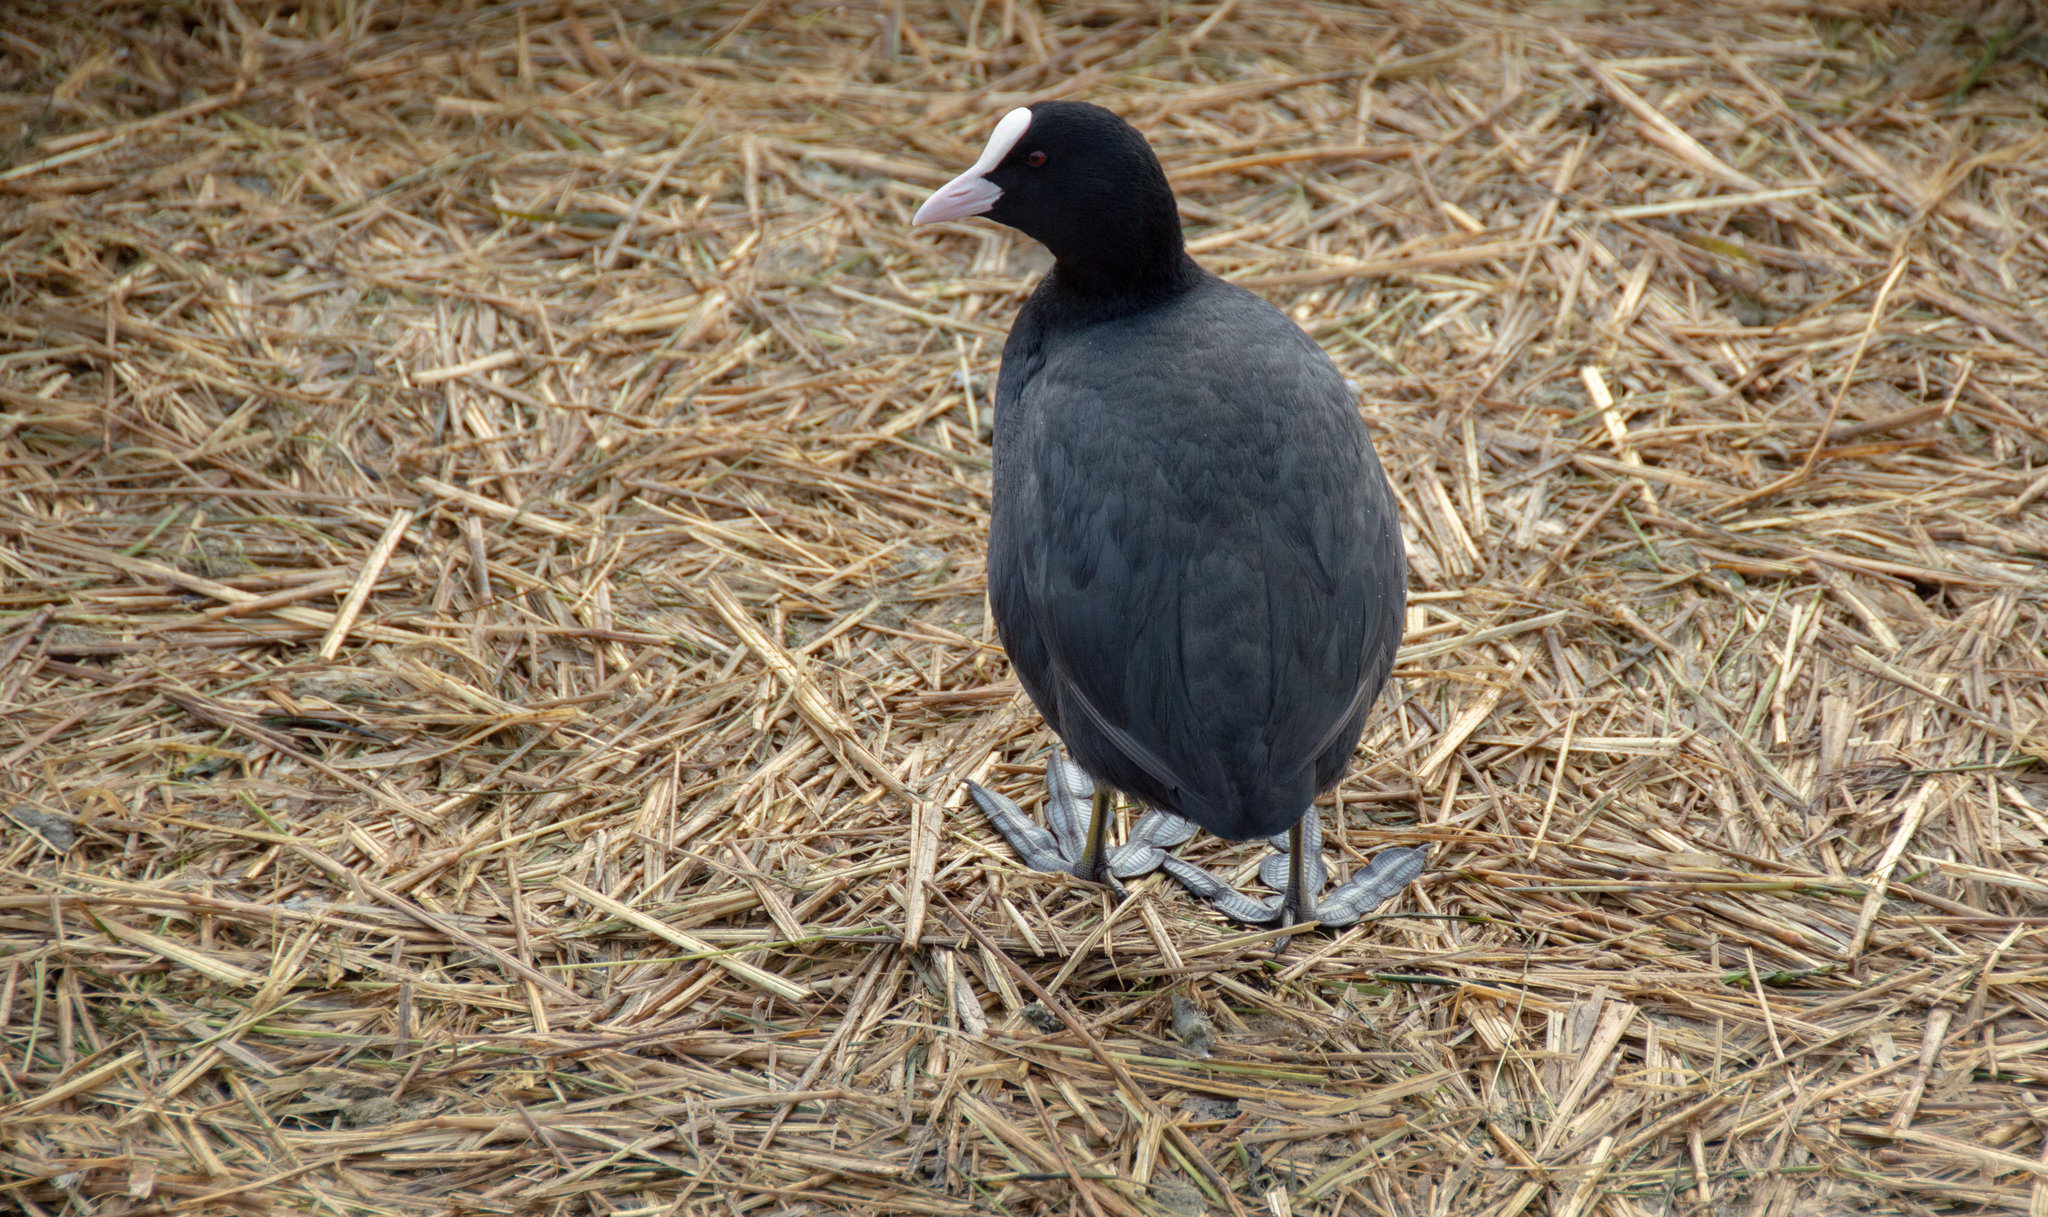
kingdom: Animalia
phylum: Chordata
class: Aves
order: Gruiformes
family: Rallidae
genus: Fulica
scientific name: Fulica atra
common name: Eurasian coot
